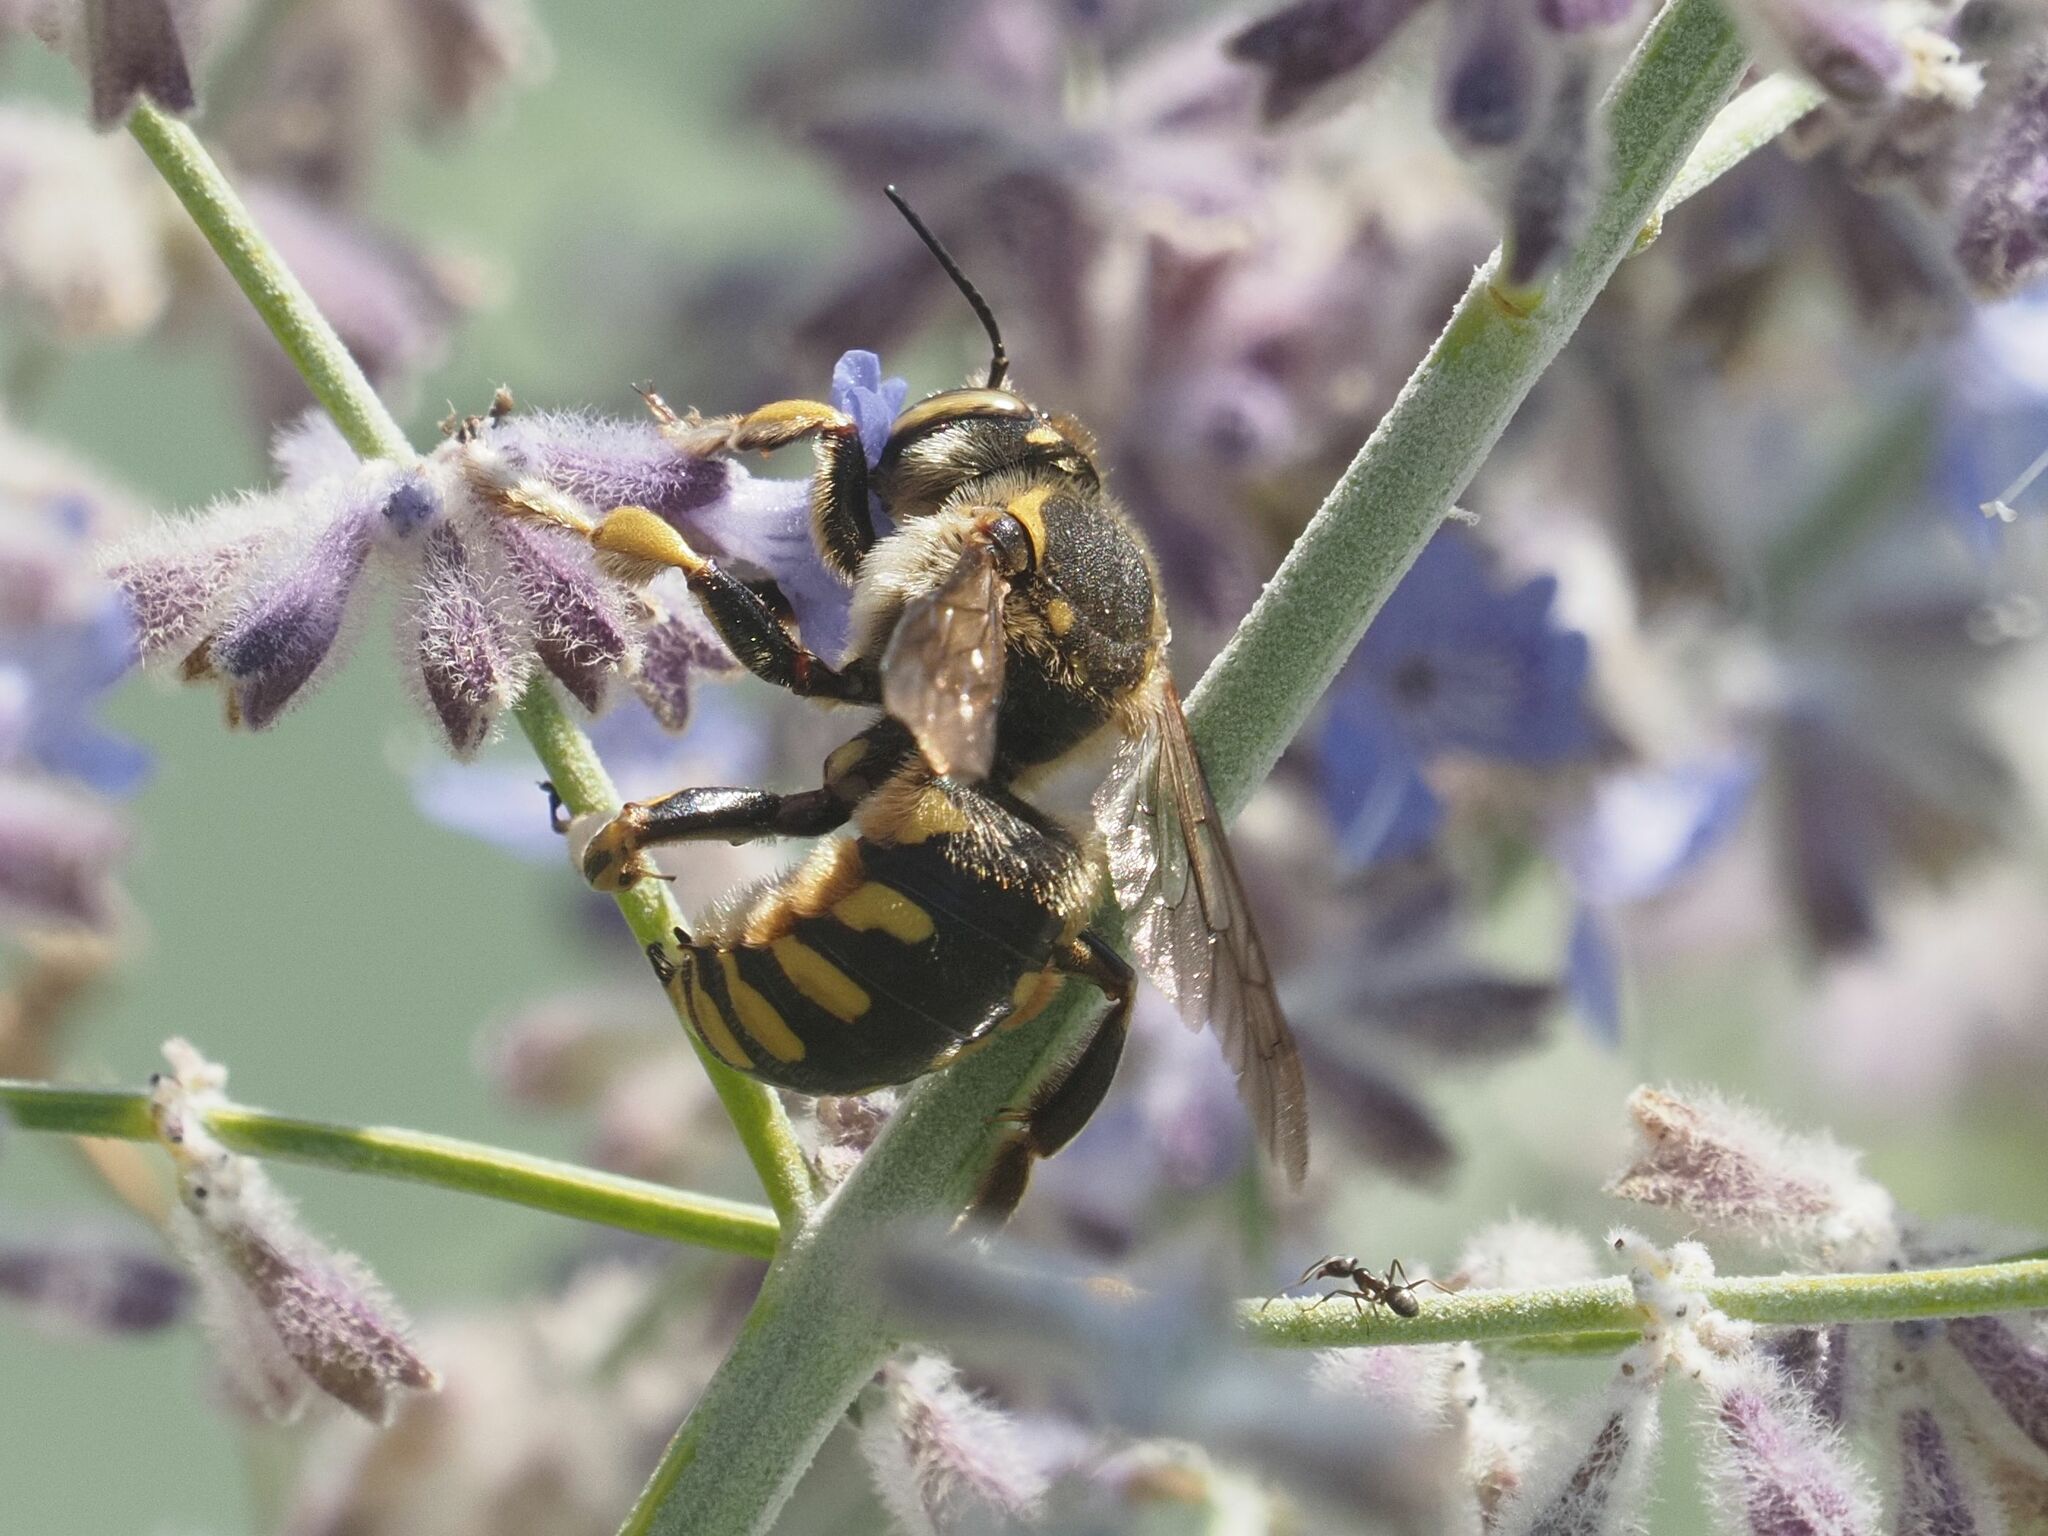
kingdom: Animalia
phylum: Arthropoda
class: Insecta
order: Hymenoptera
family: Megachilidae
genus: Anthidium
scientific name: Anthidium florentinum
